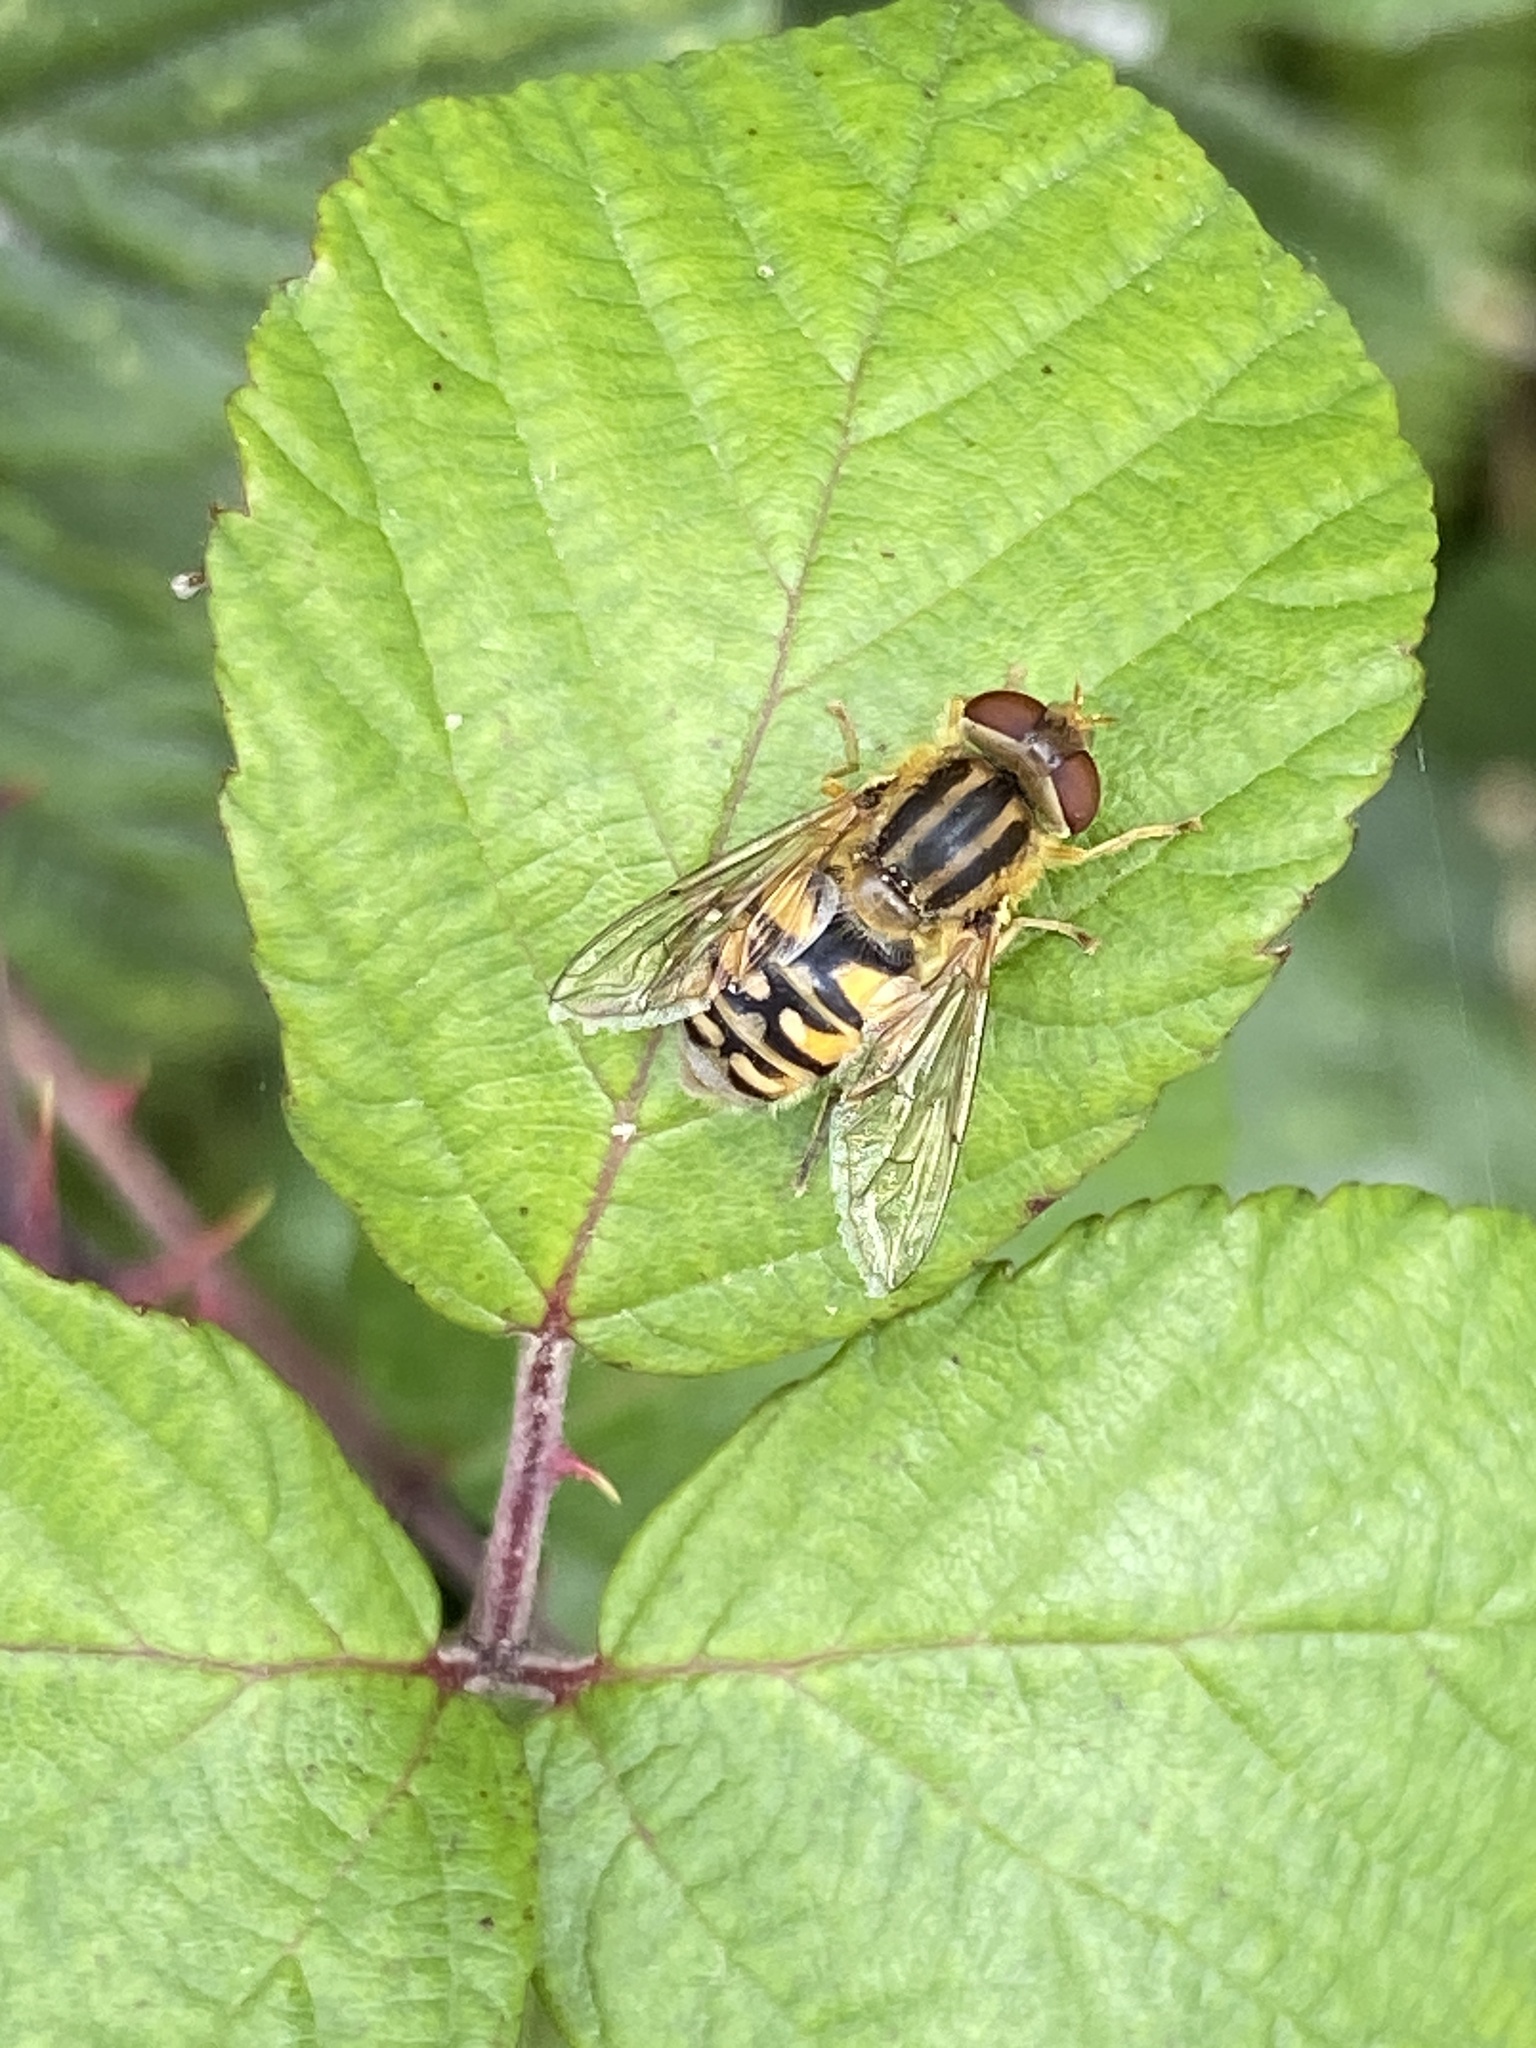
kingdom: Animalia
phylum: Arthropoda
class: Insecta
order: Diptera
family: Syrphidae
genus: Parhelophilus
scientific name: Parhelophilus
